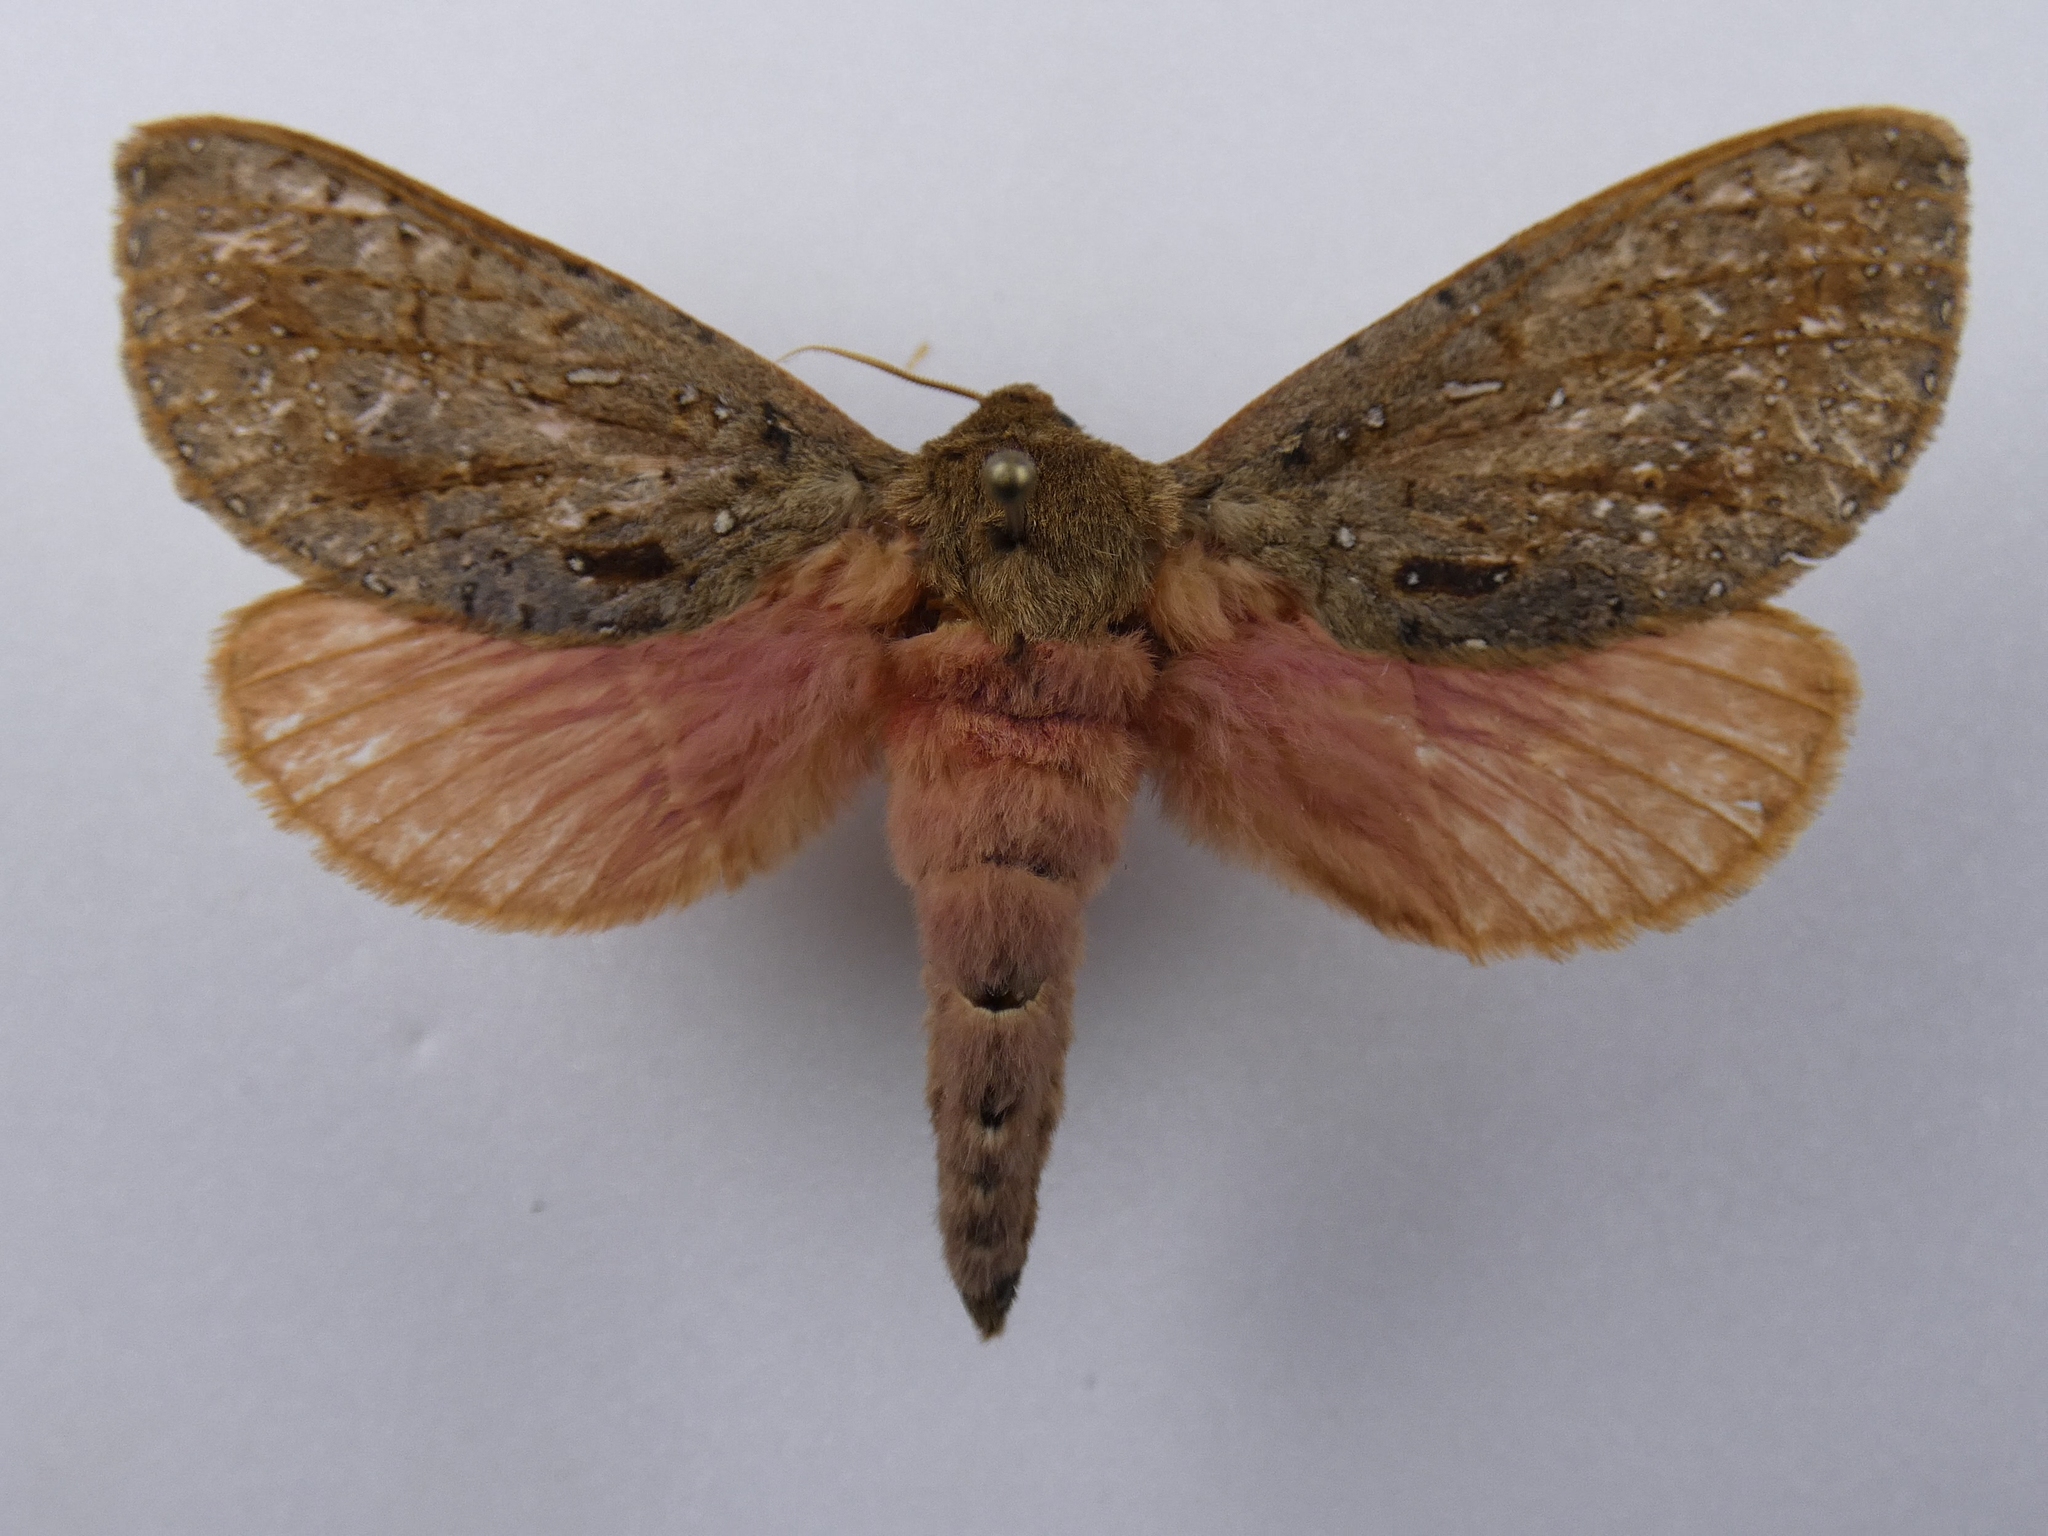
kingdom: Animalia
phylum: Arthropoda
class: Insecta
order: Lepidoptera
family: Hepialidae
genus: Dumbletonius
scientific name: Dumbletonius unimaculata
